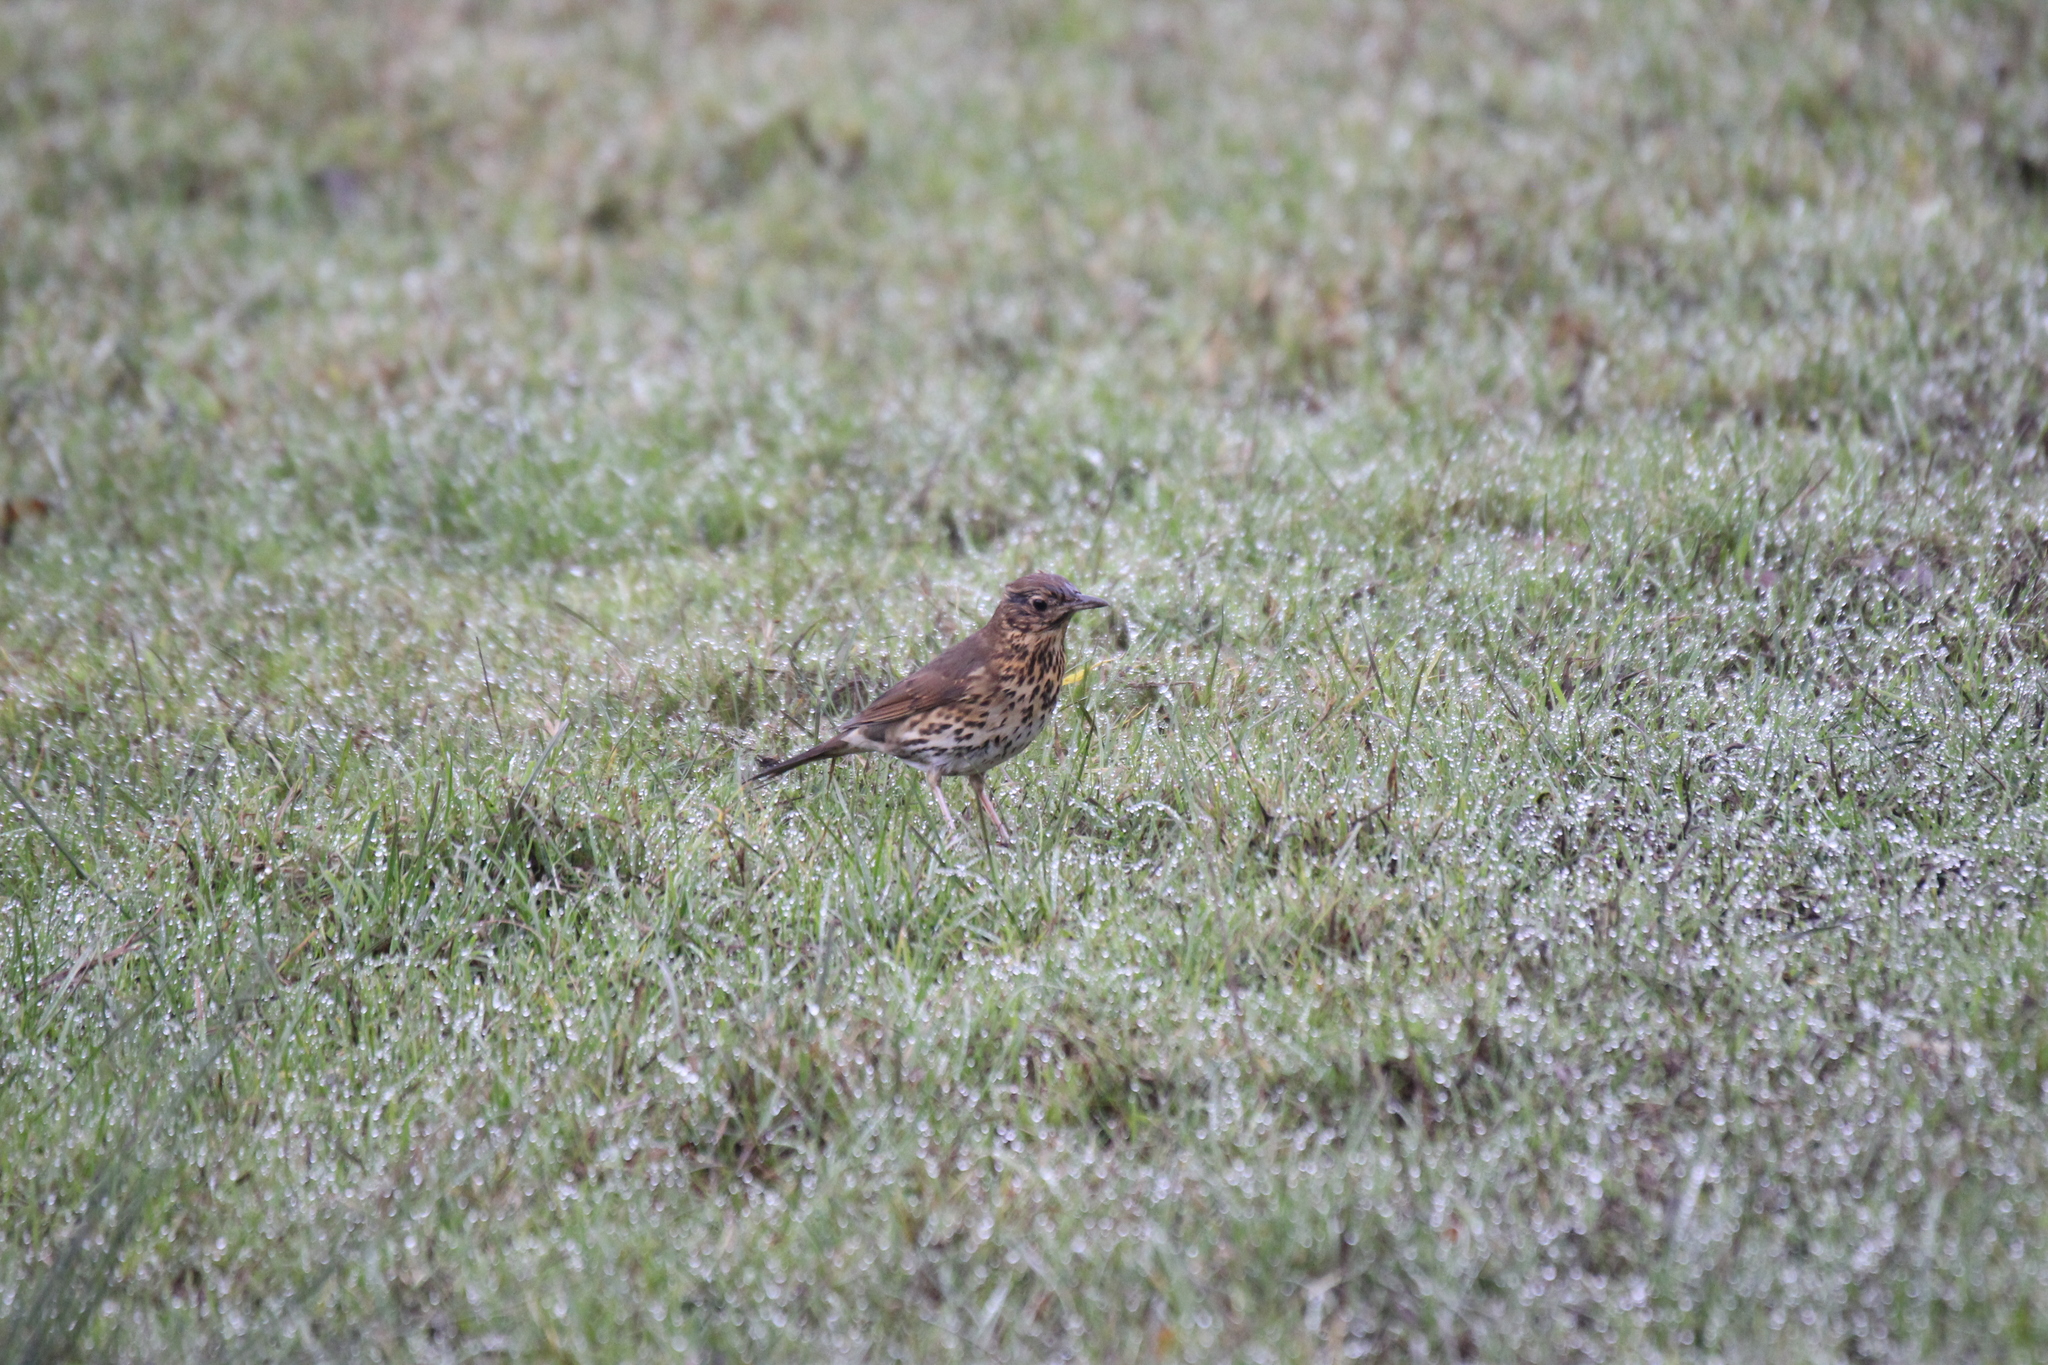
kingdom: Animalia
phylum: Chordata
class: Aves
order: Passeriformes
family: Turdidae
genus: Turdus
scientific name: Turdus philomelos
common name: Song thrush
